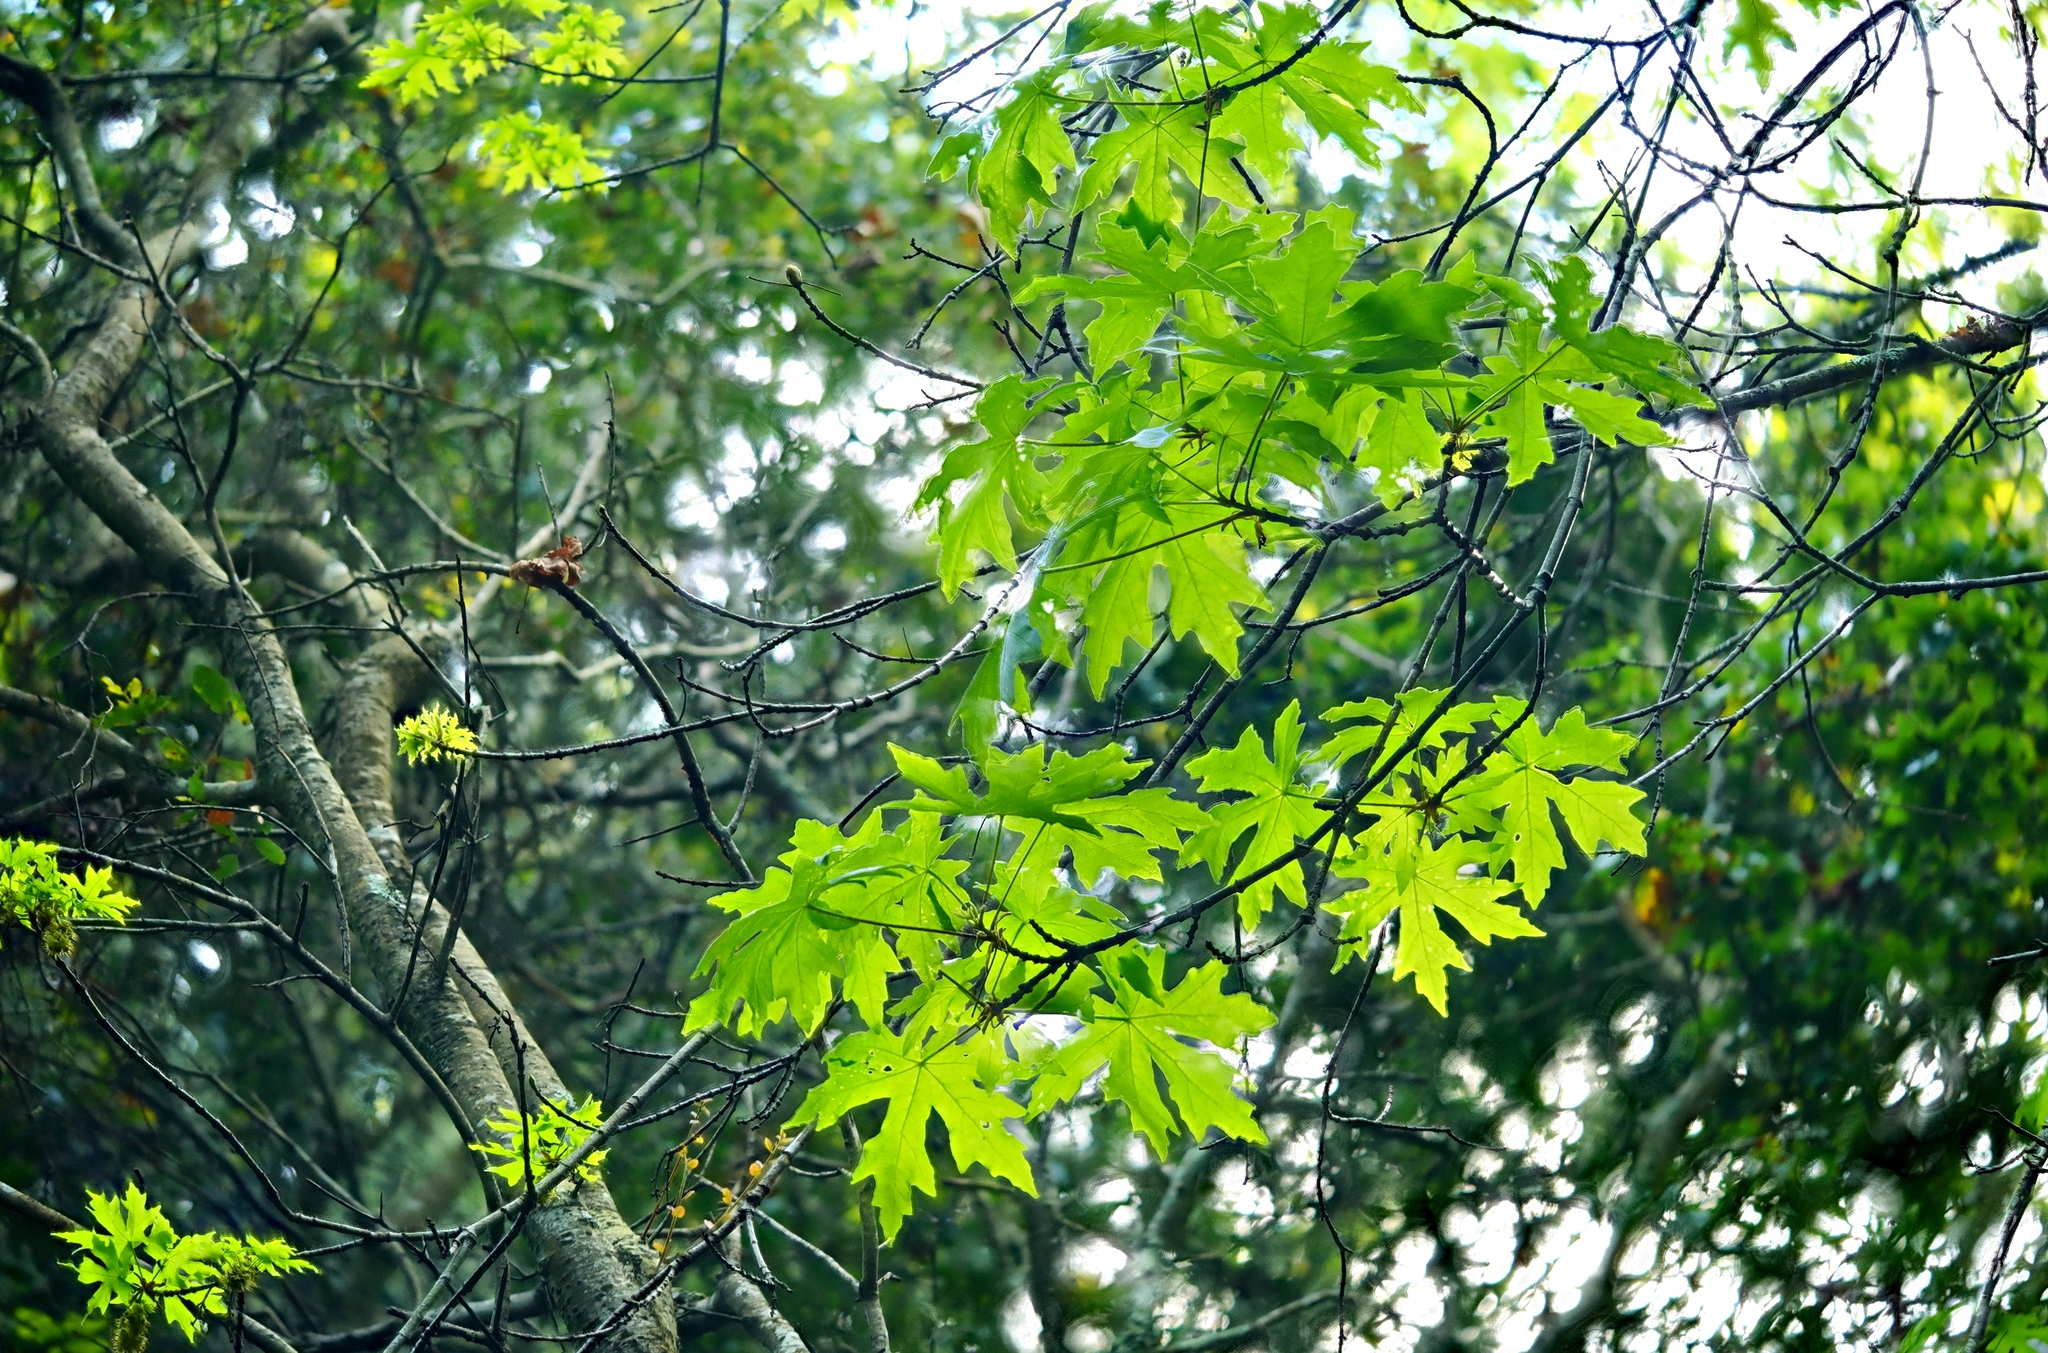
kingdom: Plantae
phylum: Tracheophyta
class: Magnoliopsida
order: Sapindales
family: Sapindaceae
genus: Acer
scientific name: Acer macrophyllum
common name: Oregon maple
